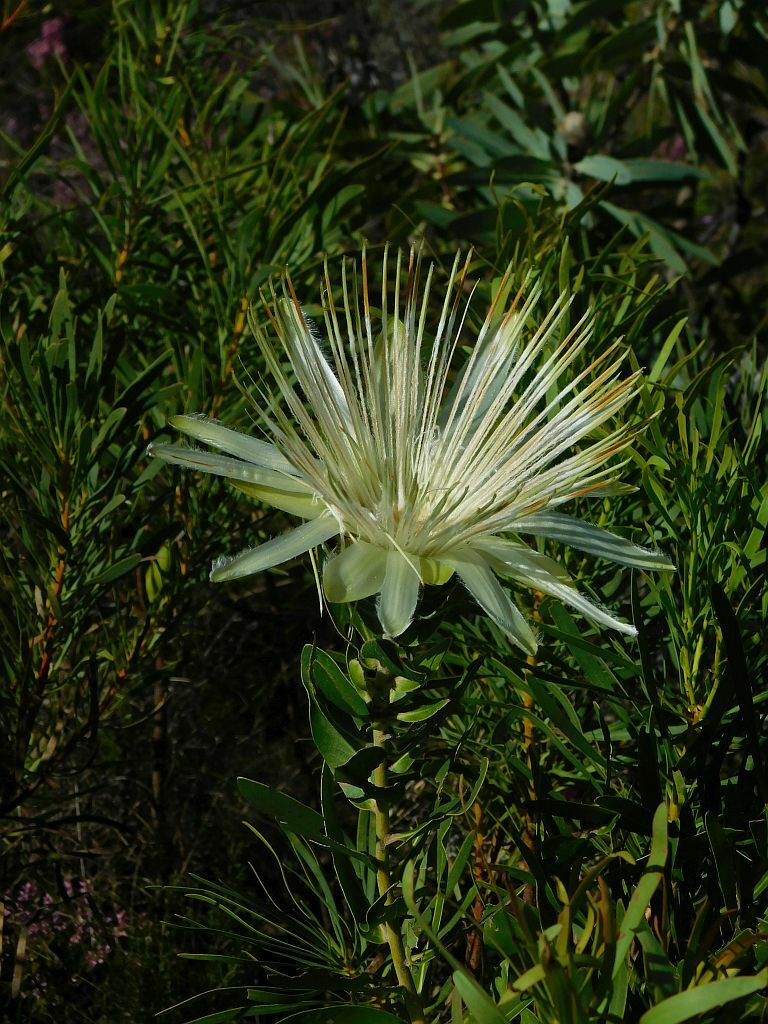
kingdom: Plantae
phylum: Tracheophyta
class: Magnoliopsida
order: Proteales
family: Proteaceae
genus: Protea
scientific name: Protea aurea
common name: Shuttlecock sugarbush
